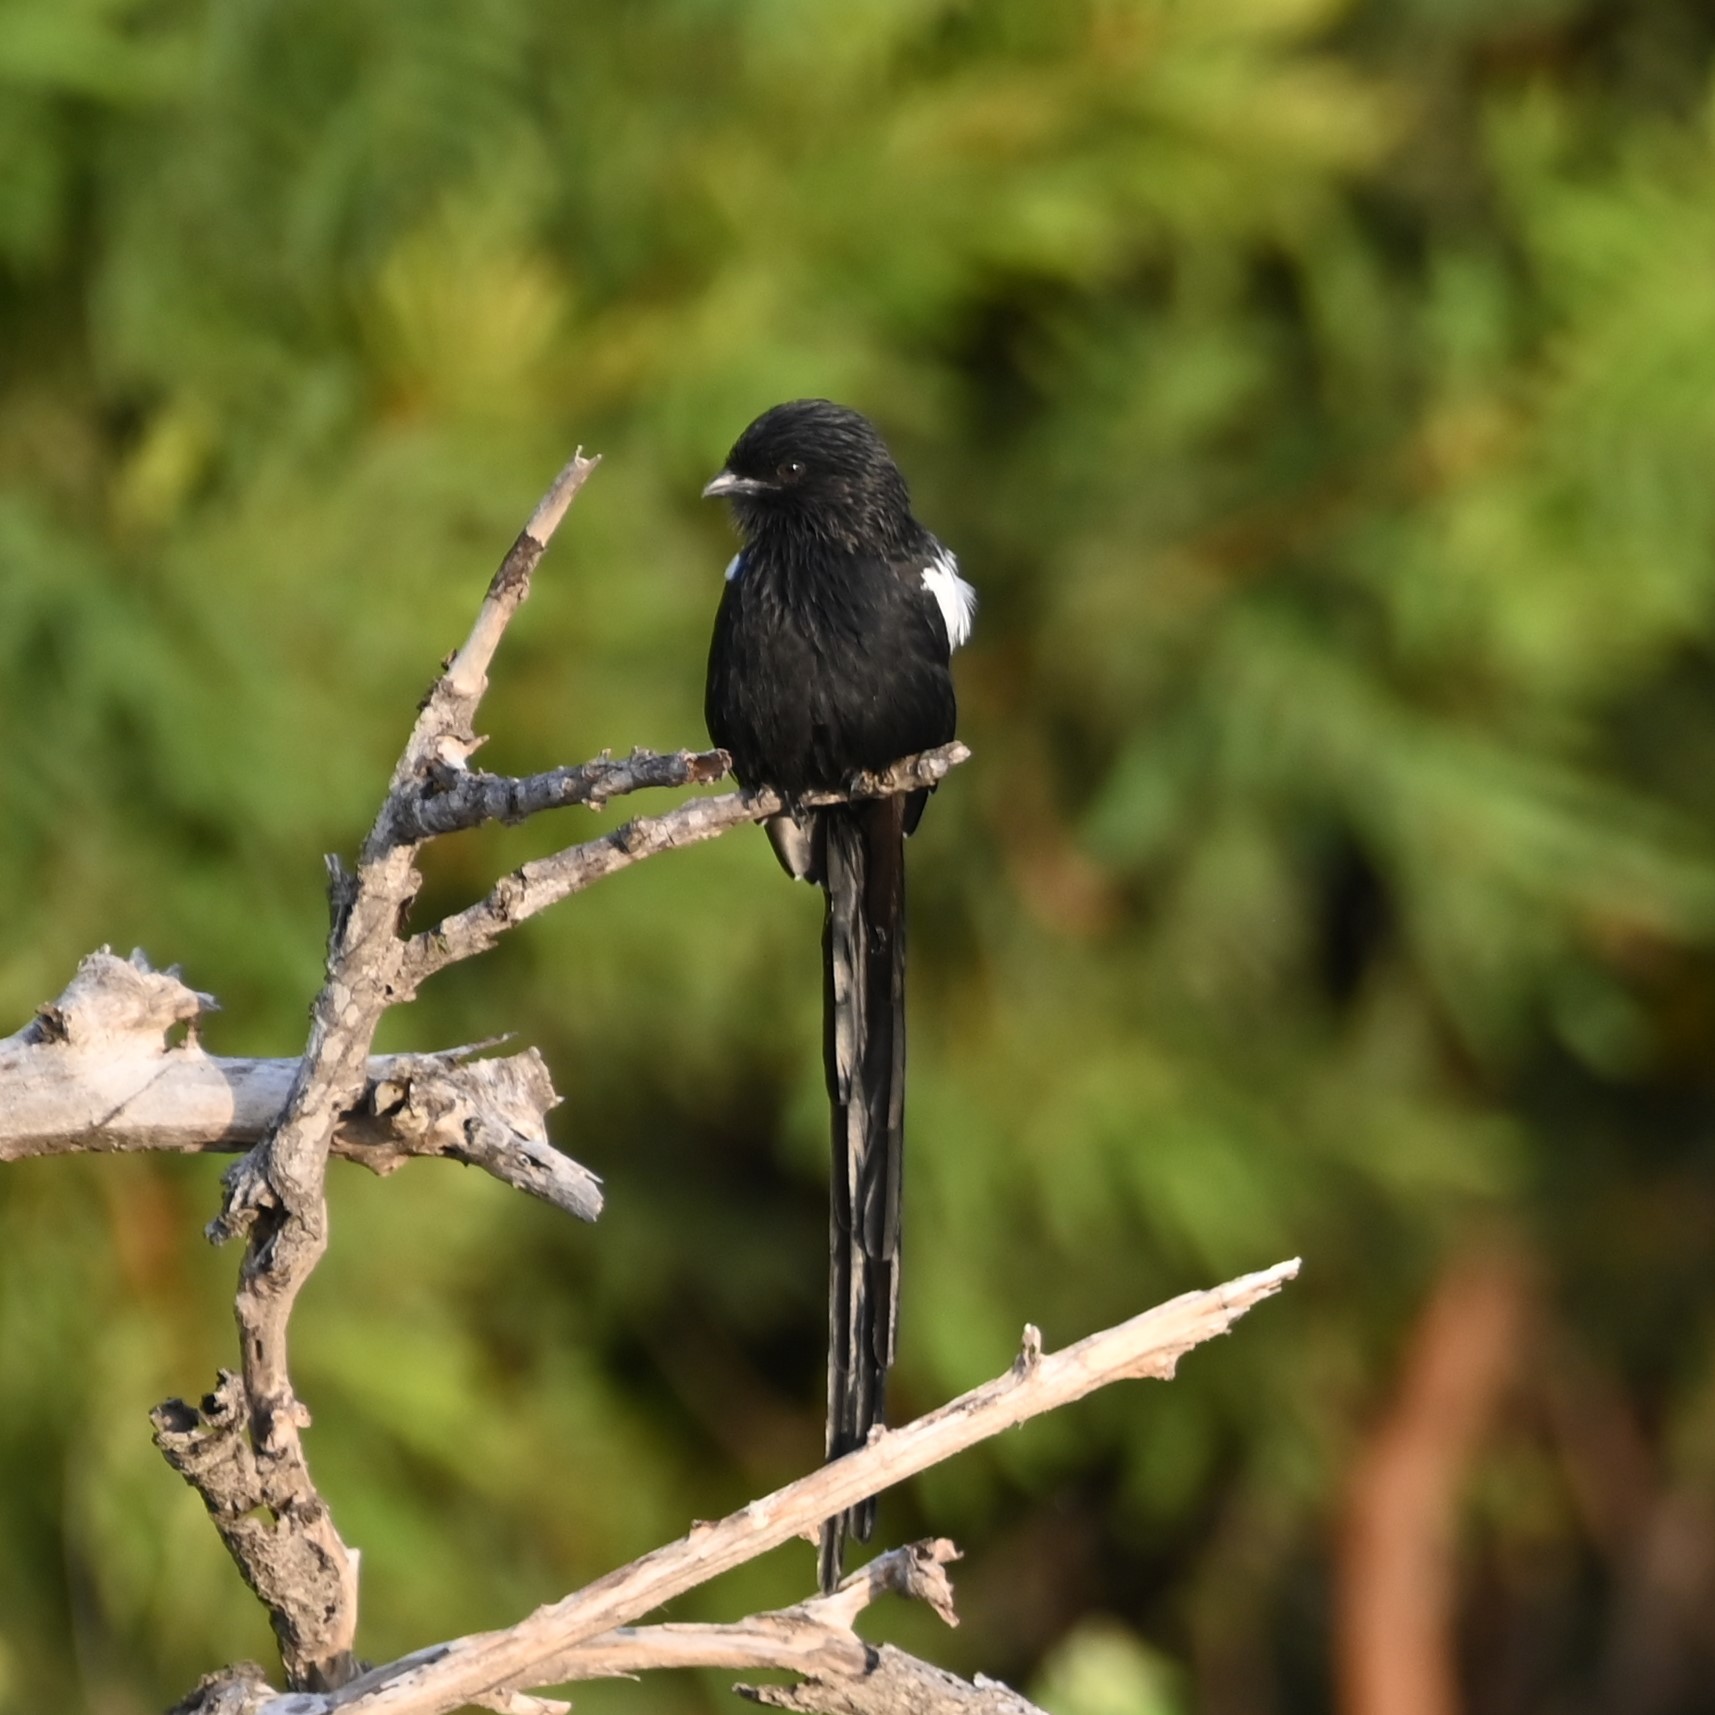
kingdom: Animalia
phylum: Chordata
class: Aves
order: Passeriformes
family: Laniidae
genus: Urolestes
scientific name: Urolestes melanoleucus
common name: Magpie shrike
